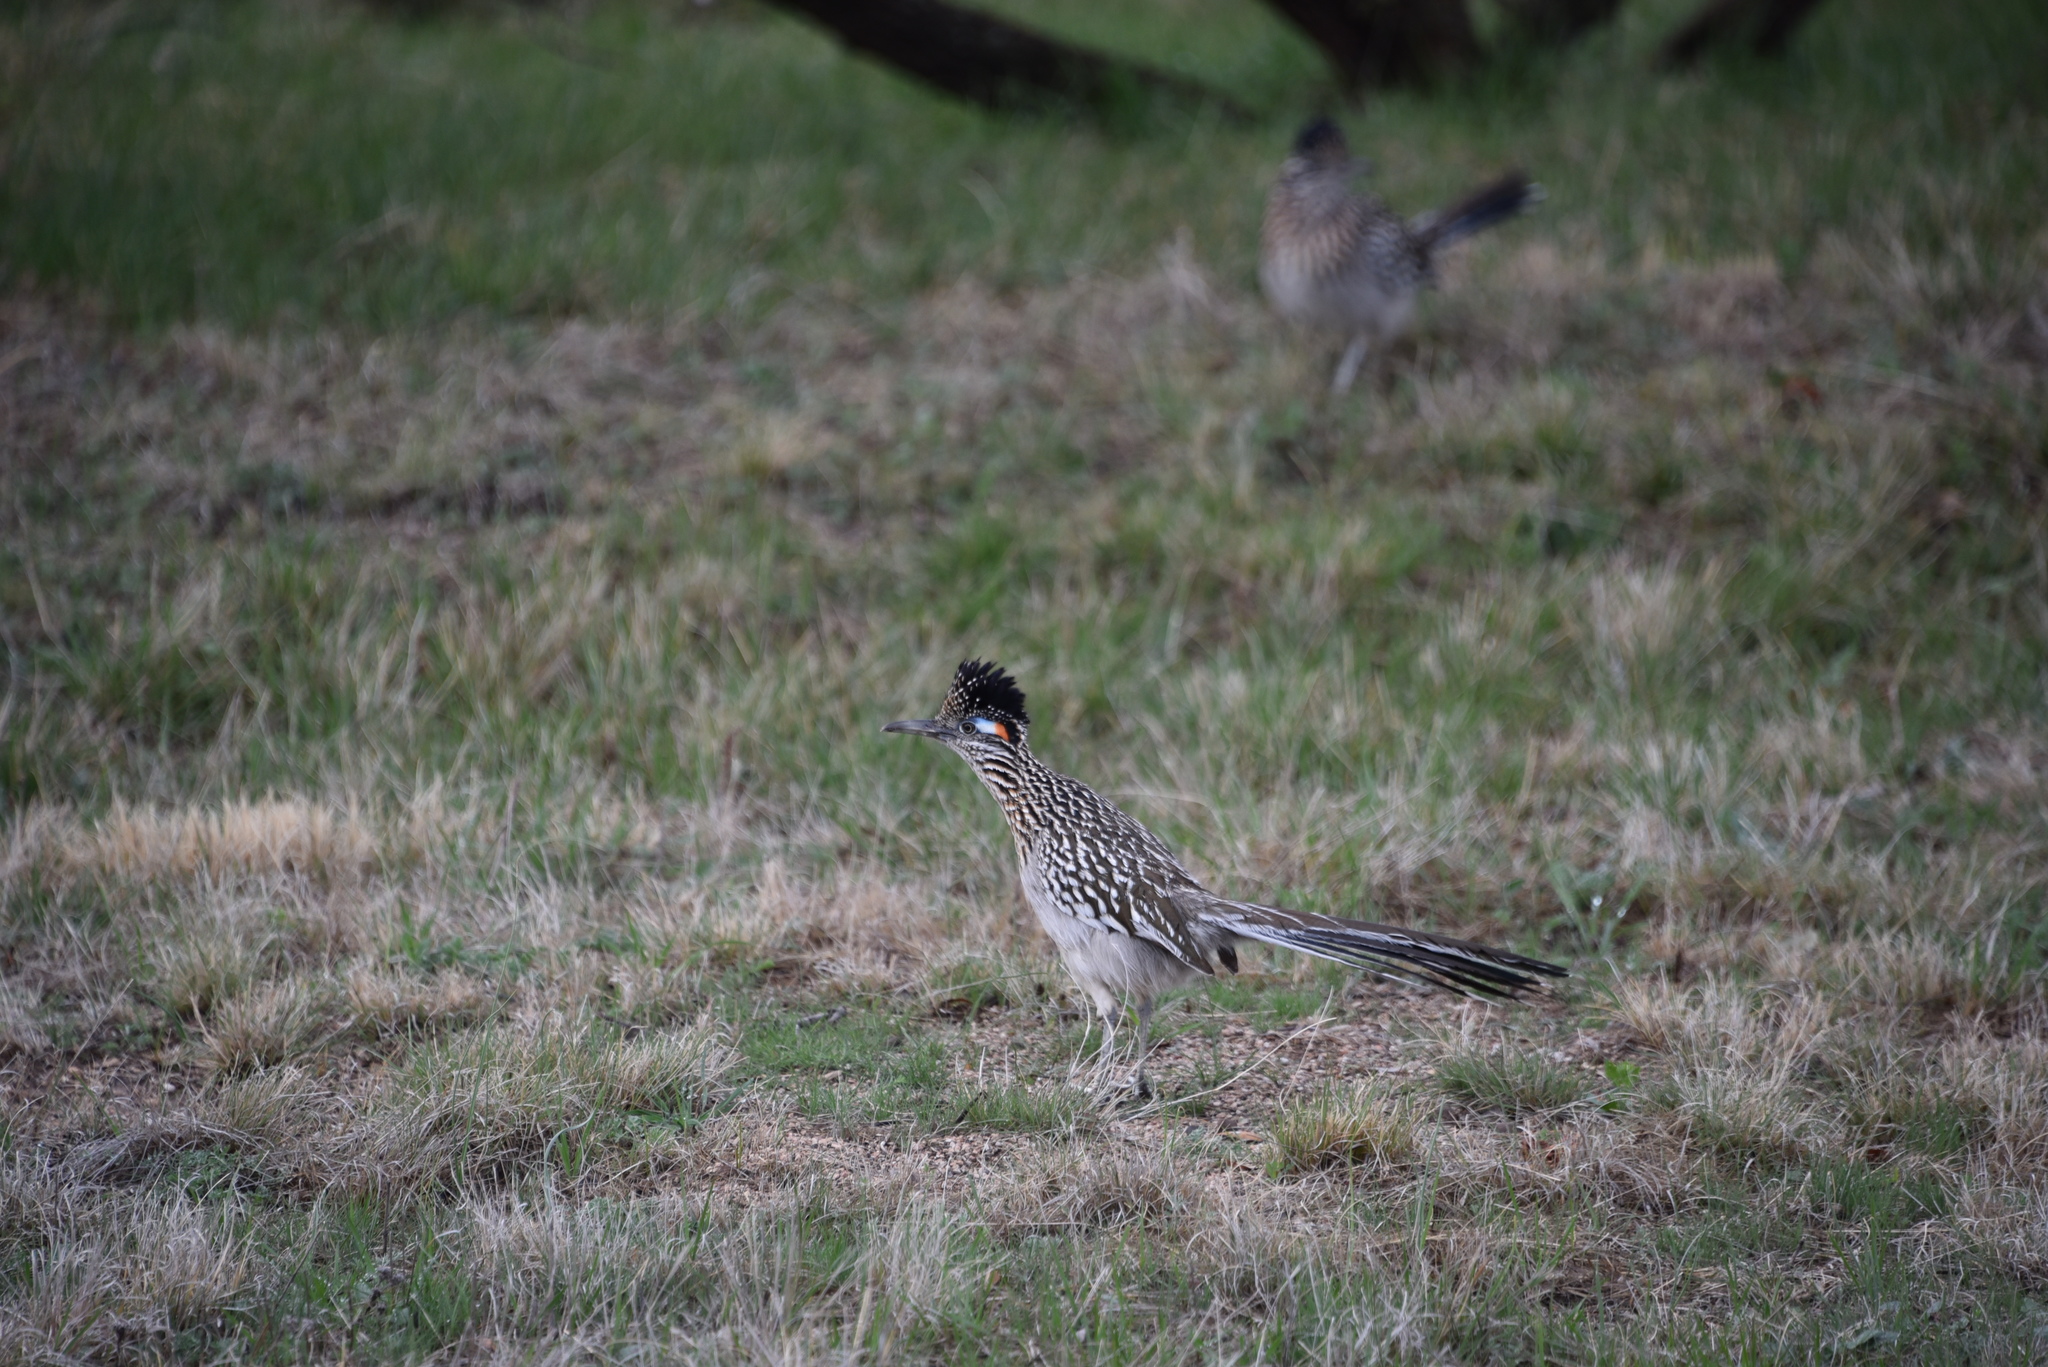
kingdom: Animalia
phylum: Chordata
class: Aves
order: Cuculiformes
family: Cuculidae
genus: Geococcyx
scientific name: Geococcyx californianus
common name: Greater roadrunner
